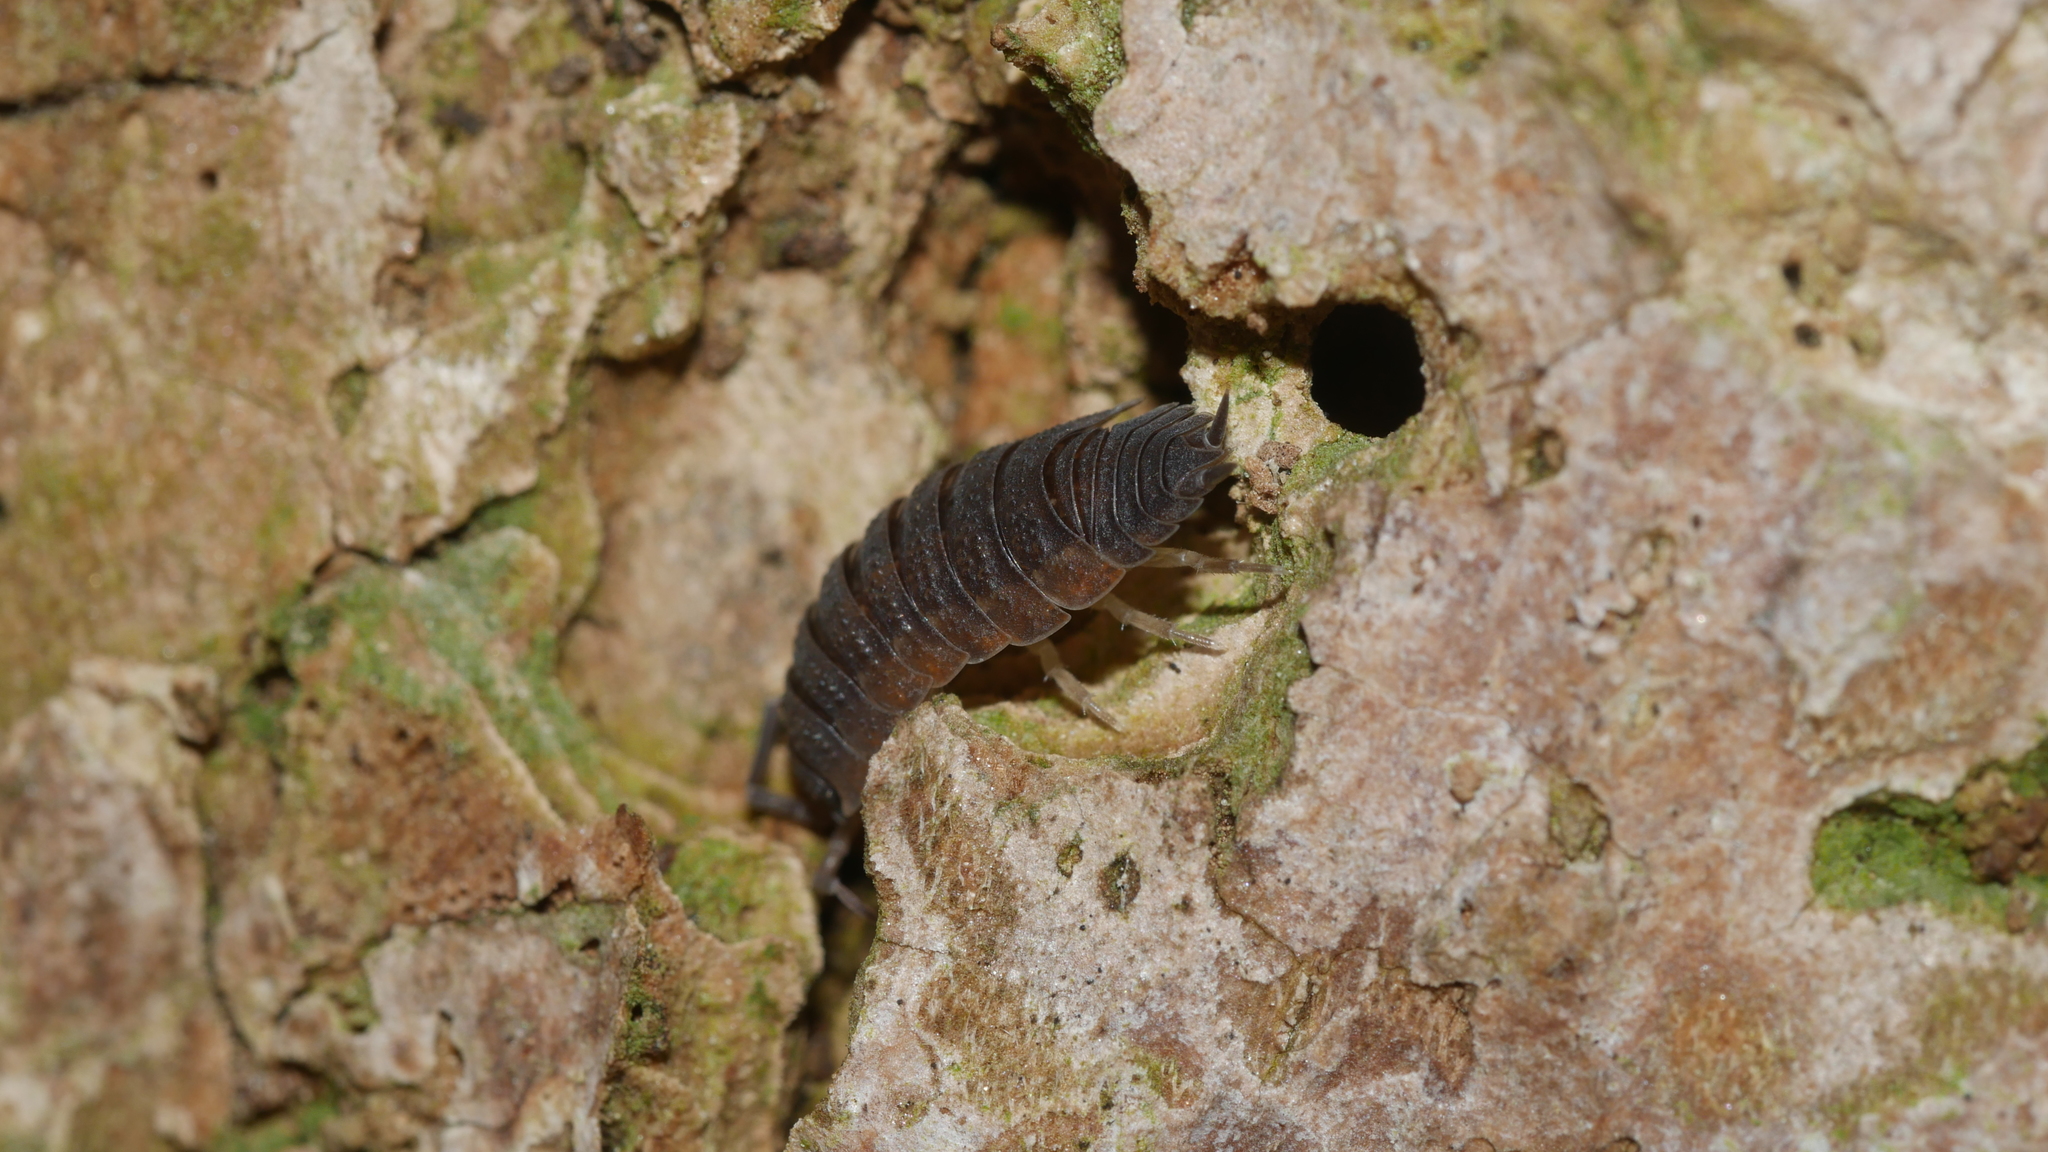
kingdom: Animalia
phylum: Arthropoda
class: Malacostraca
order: Isopoda
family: Porcellionidae
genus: Porcellio
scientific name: Porcellio scaber
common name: Common rough woodlouse
